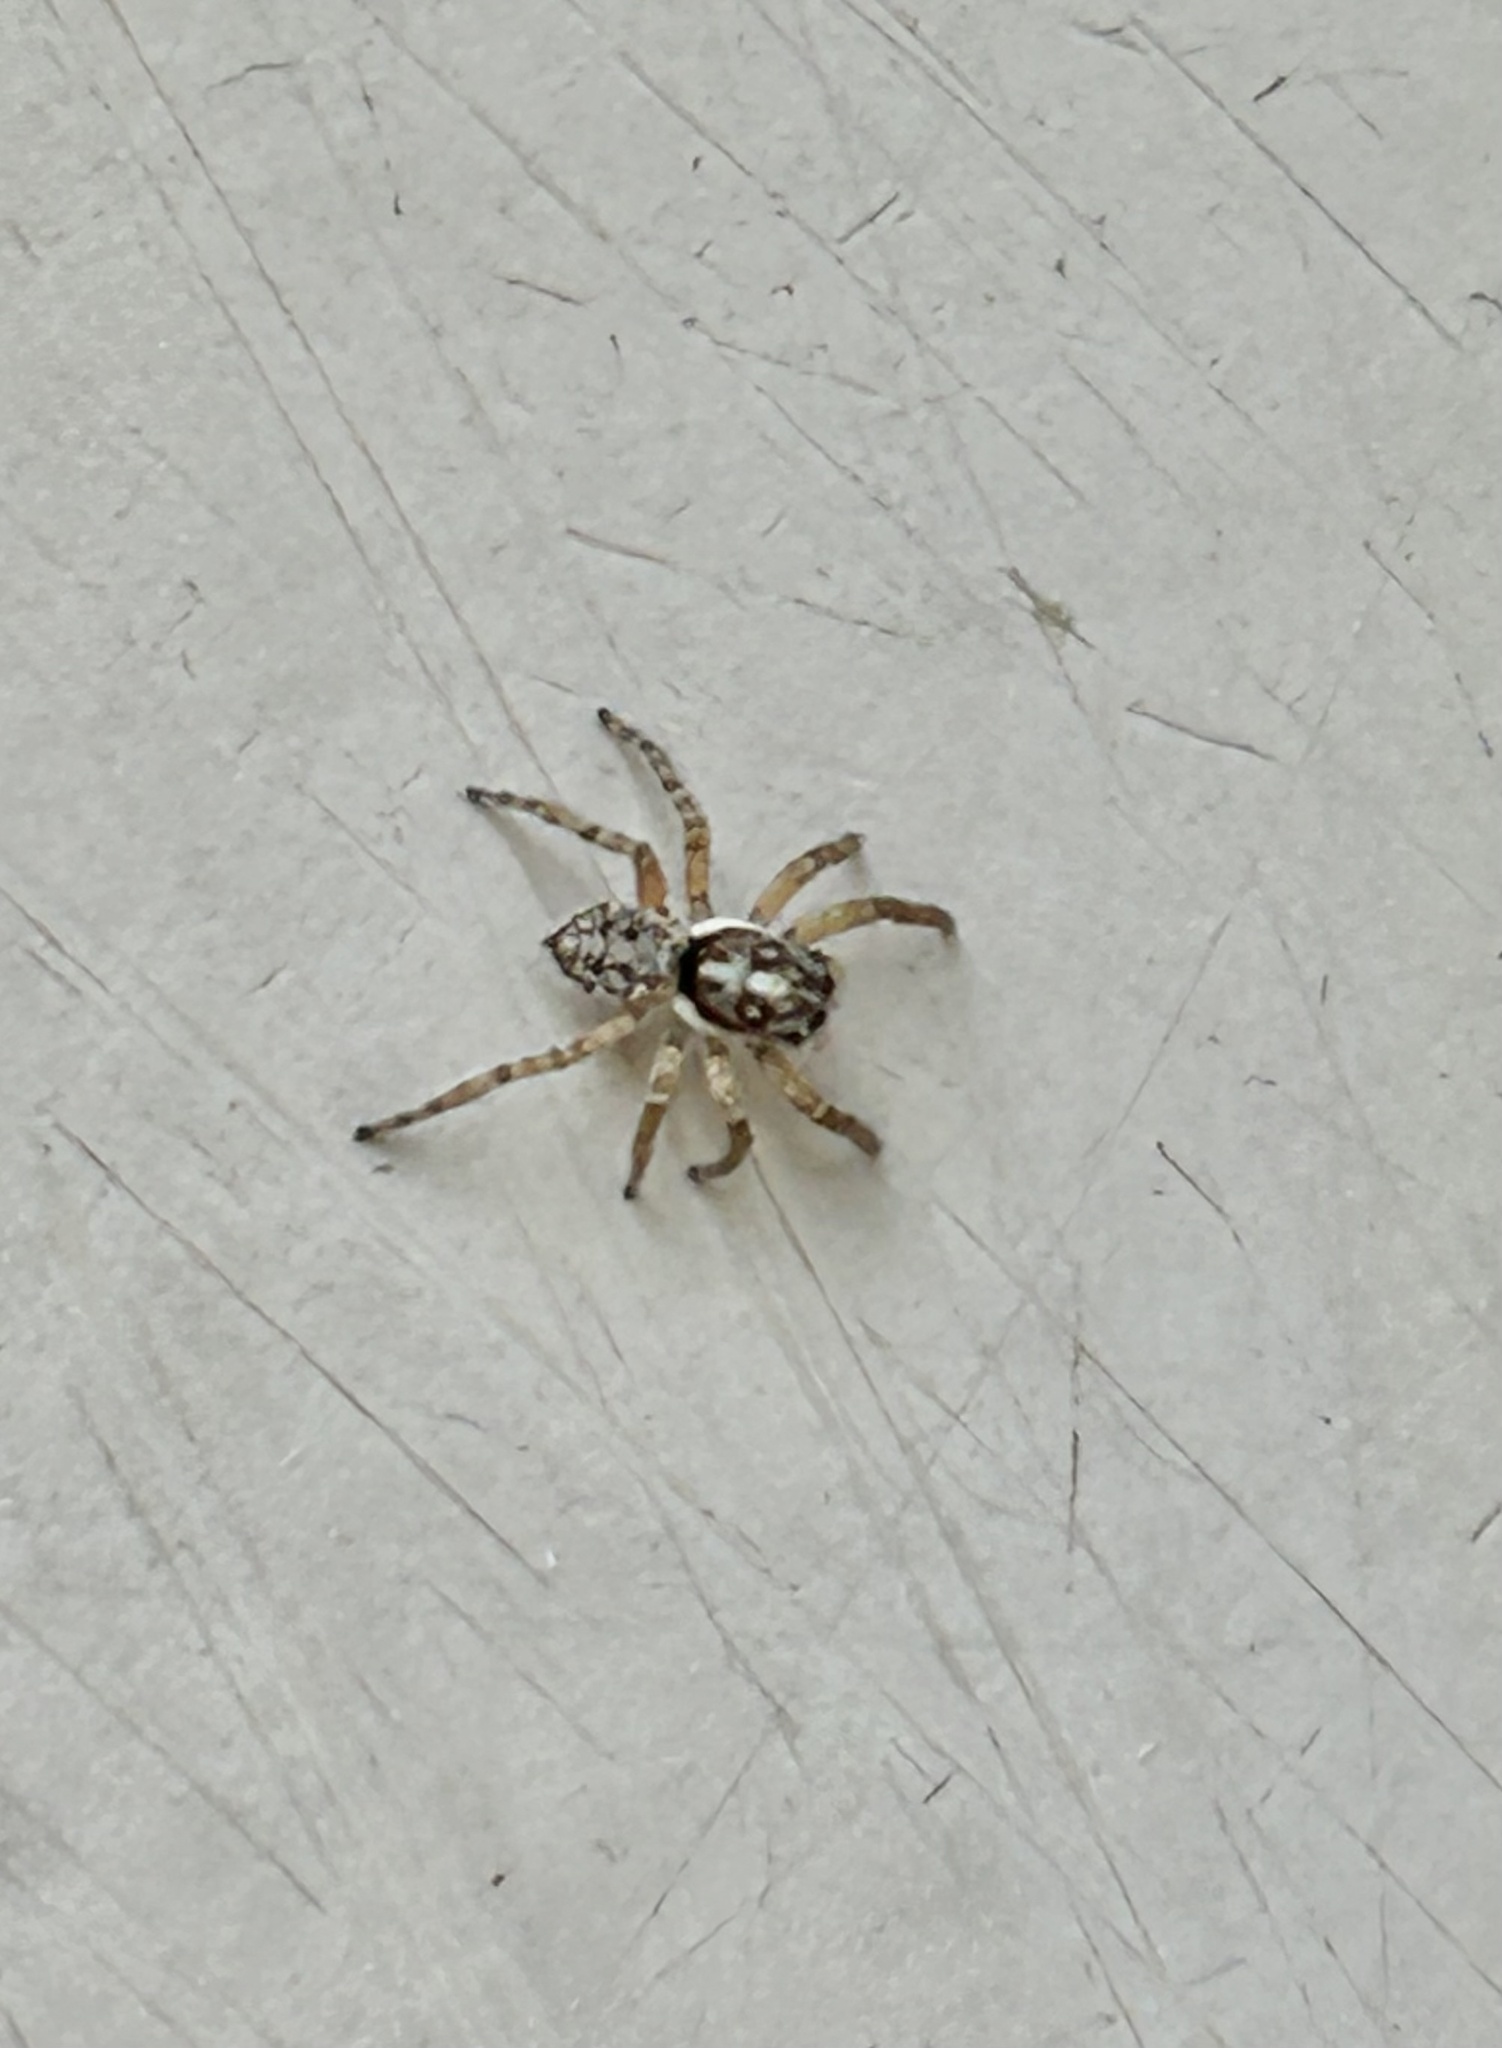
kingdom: Animalia
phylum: Arthropoda
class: Arachnida
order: Araneae
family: Salticidae
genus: Menemerus
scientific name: Menemerus semilimbatus
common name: Jumping spider
